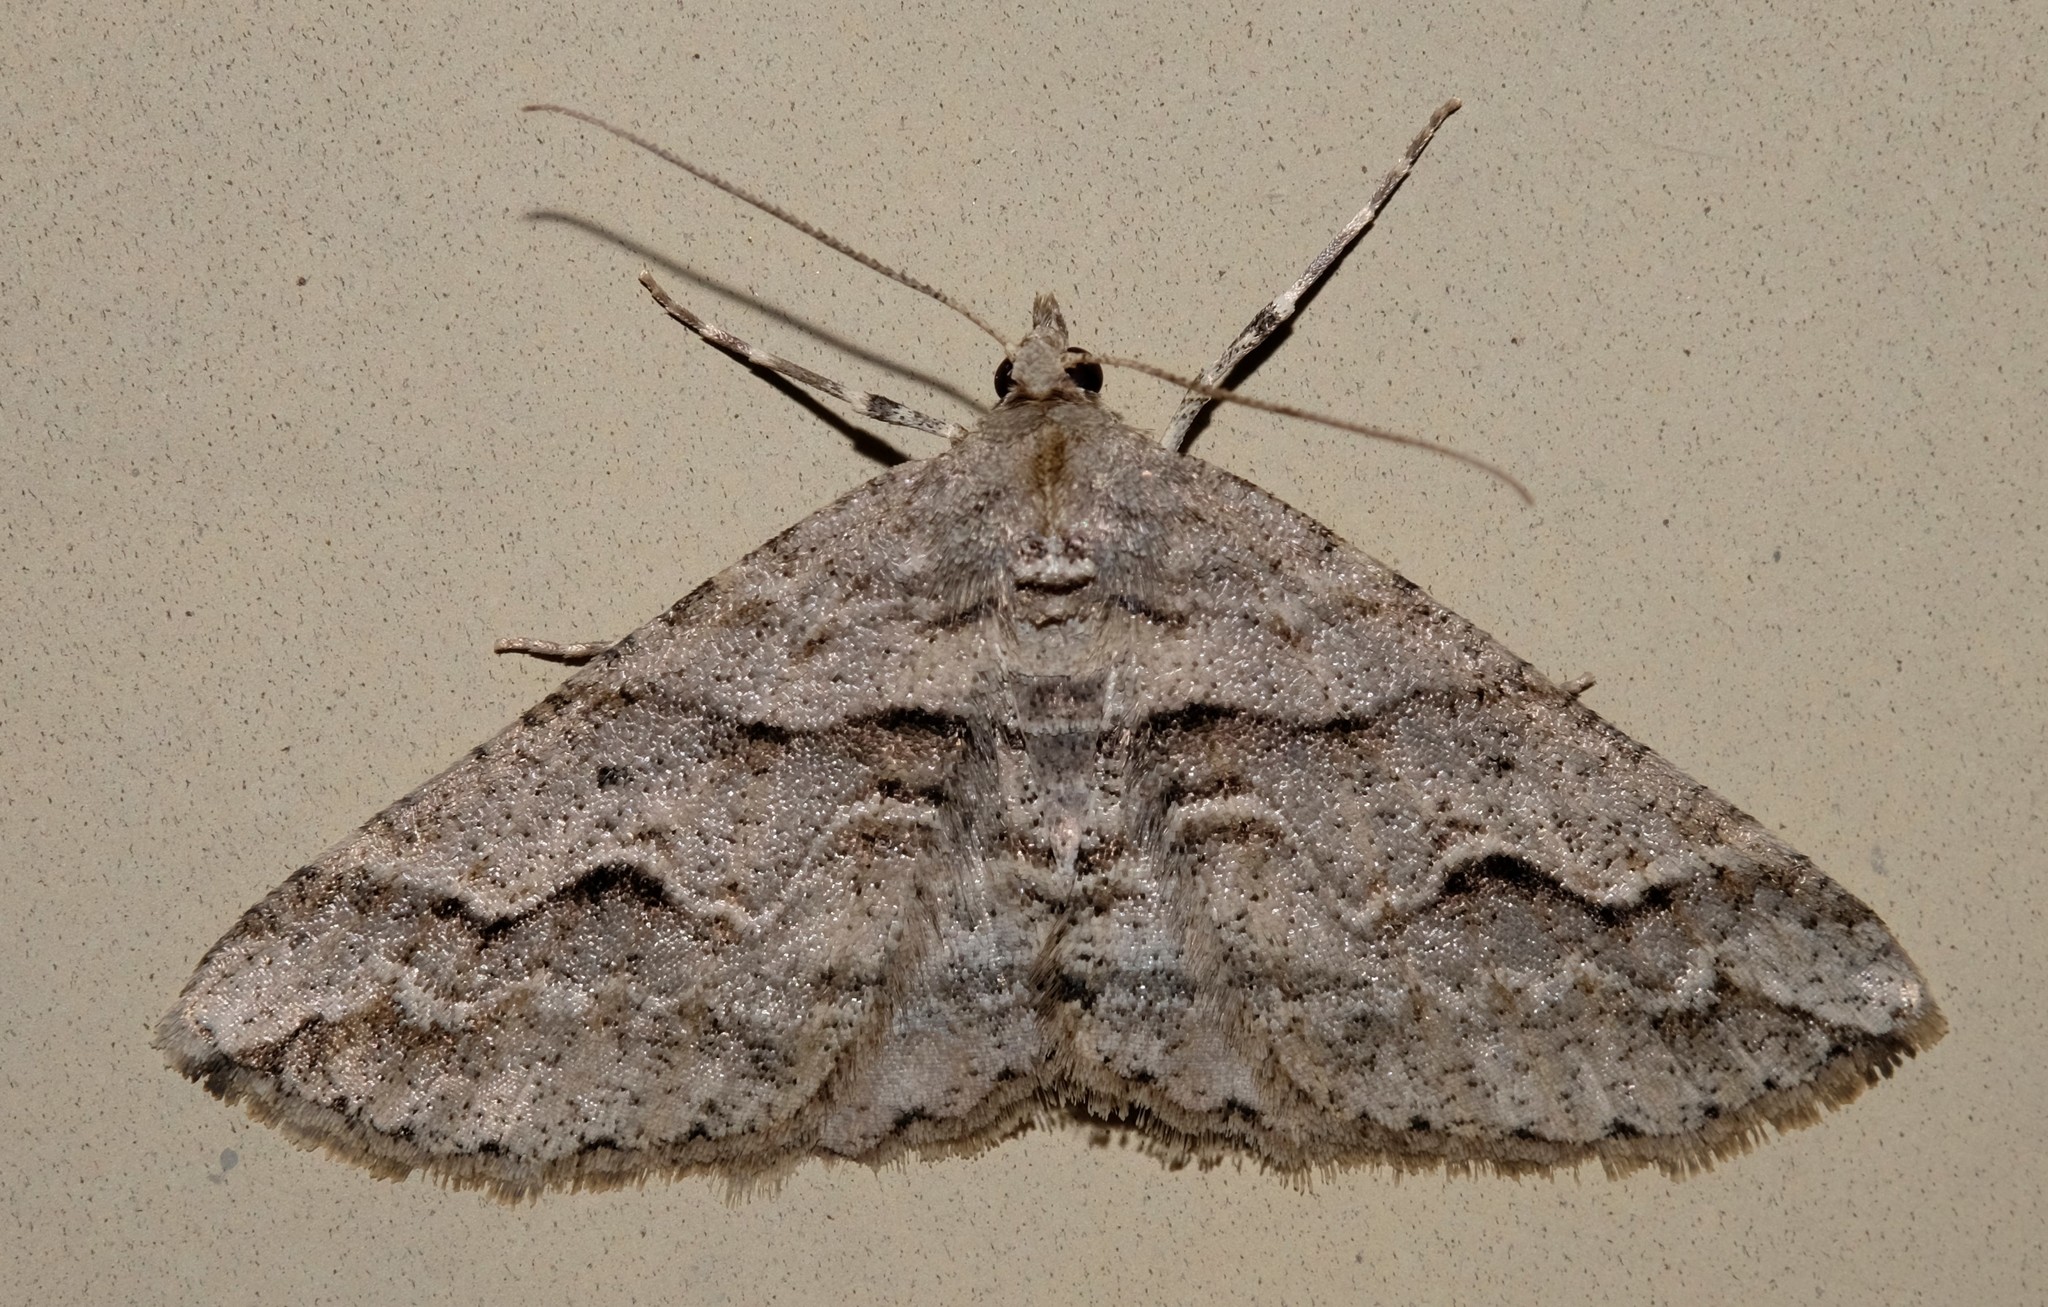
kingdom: Animalia
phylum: Arthropoda
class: Insecta
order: Lepidoptera
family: Geometridae
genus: Syneora
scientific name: Syneora fractata
